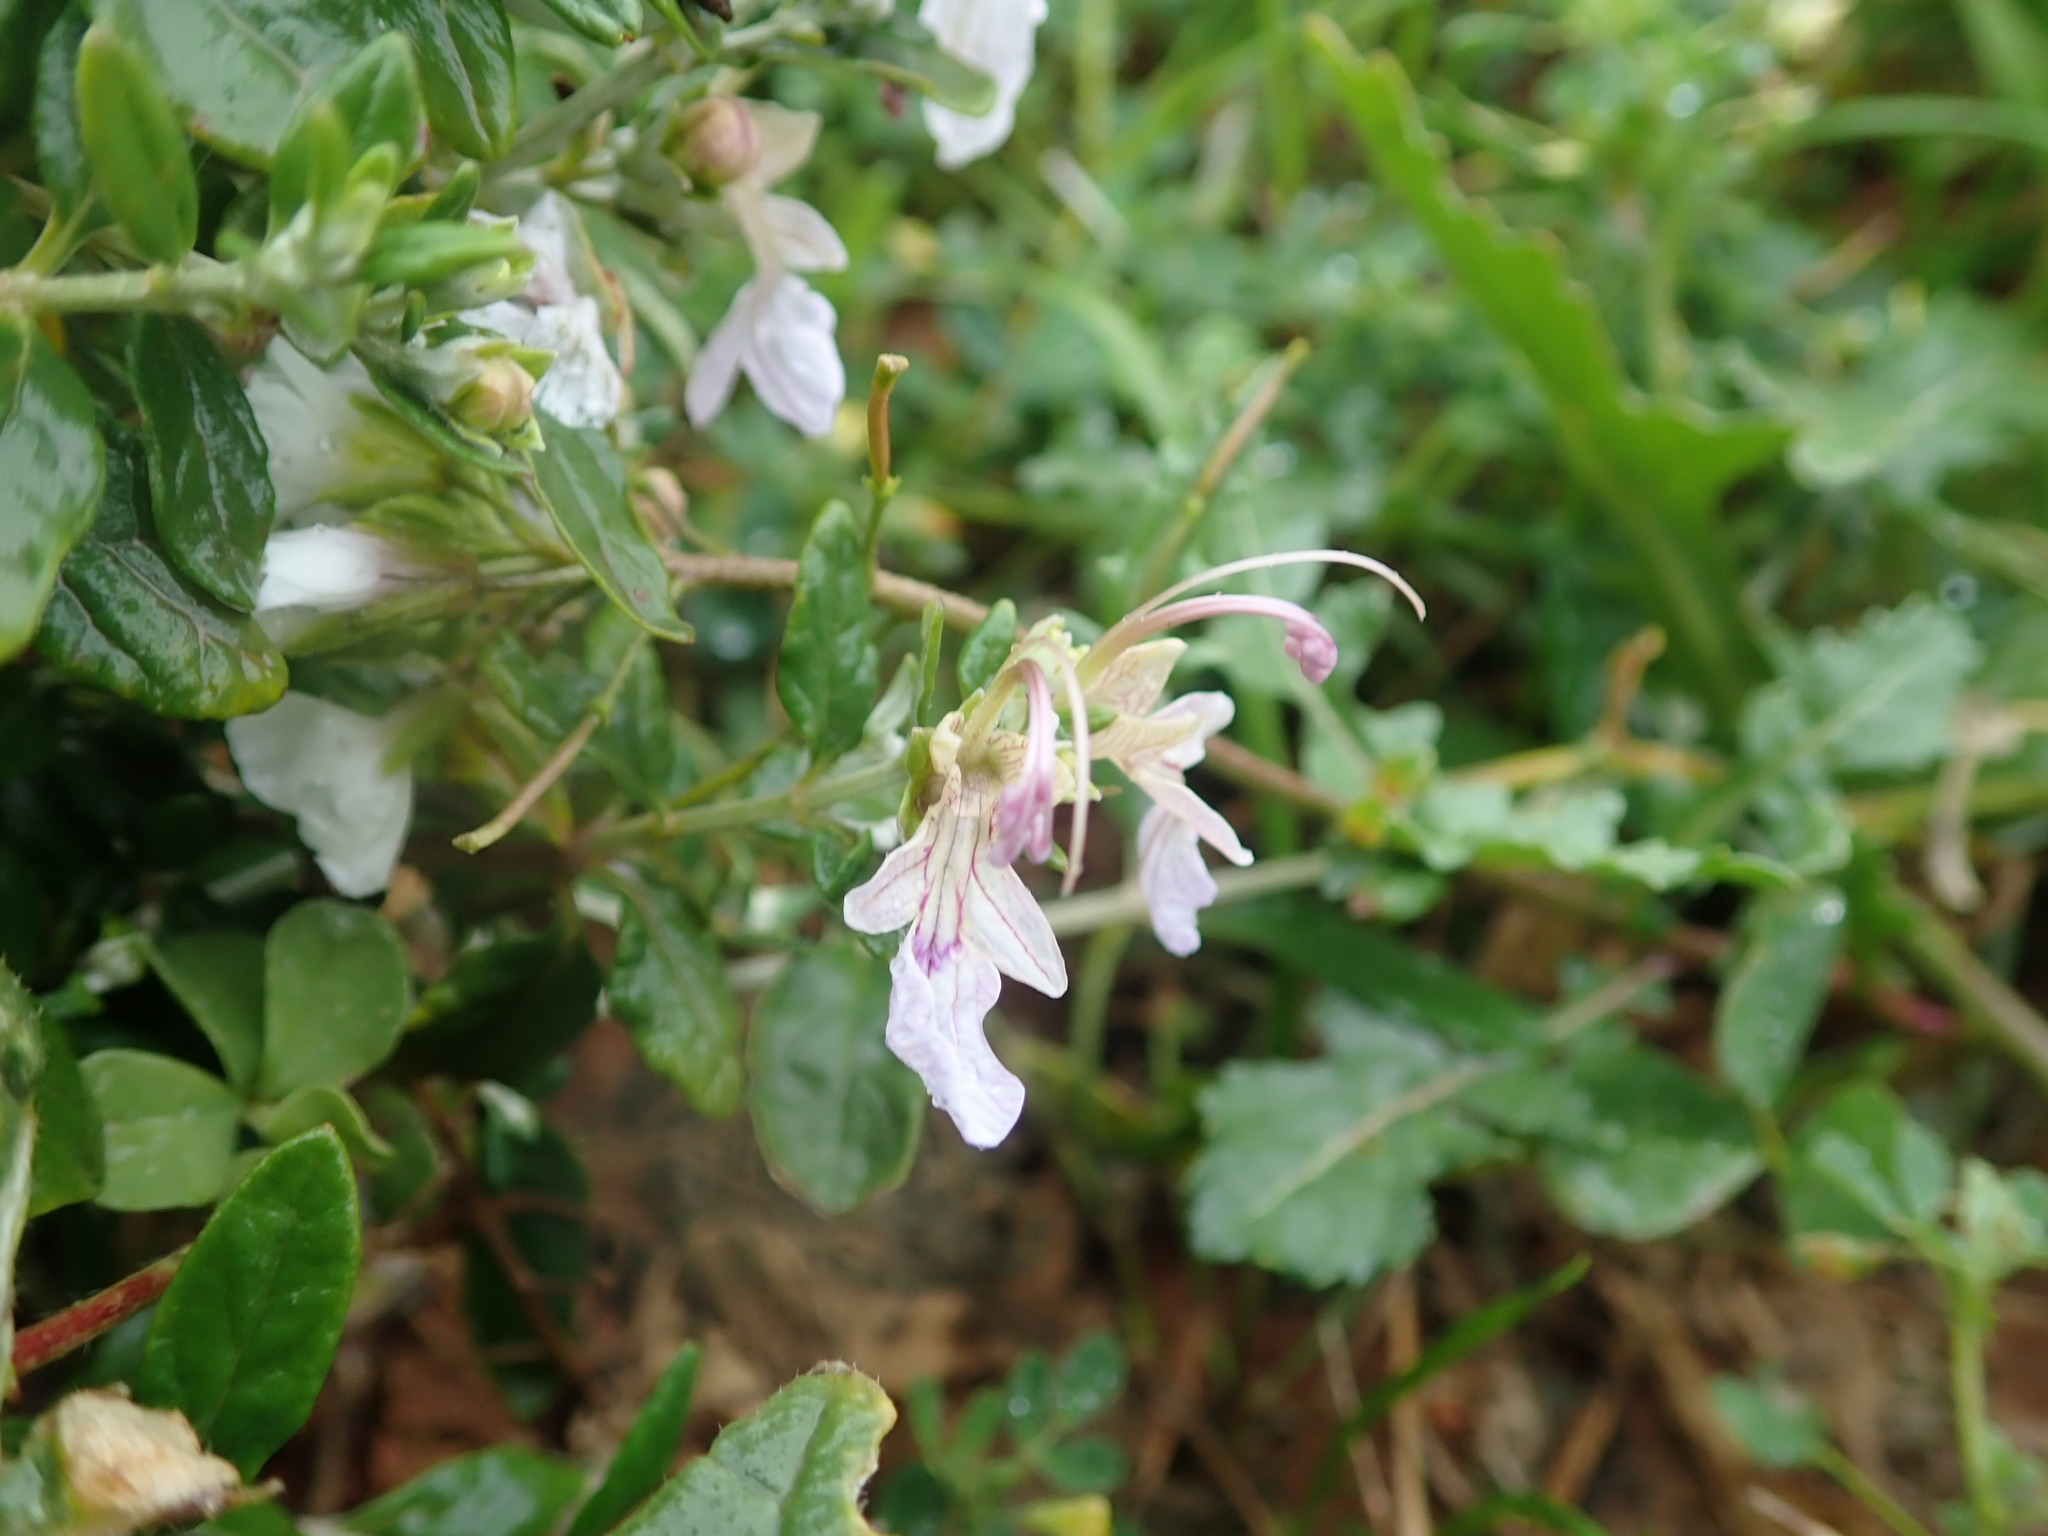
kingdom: Plantae
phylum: Tracheophyta
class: Magnoliopsida
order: Lamiales
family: Lamiaceae
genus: Teucrium
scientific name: Teucrium fruticans
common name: Shrubby germander
